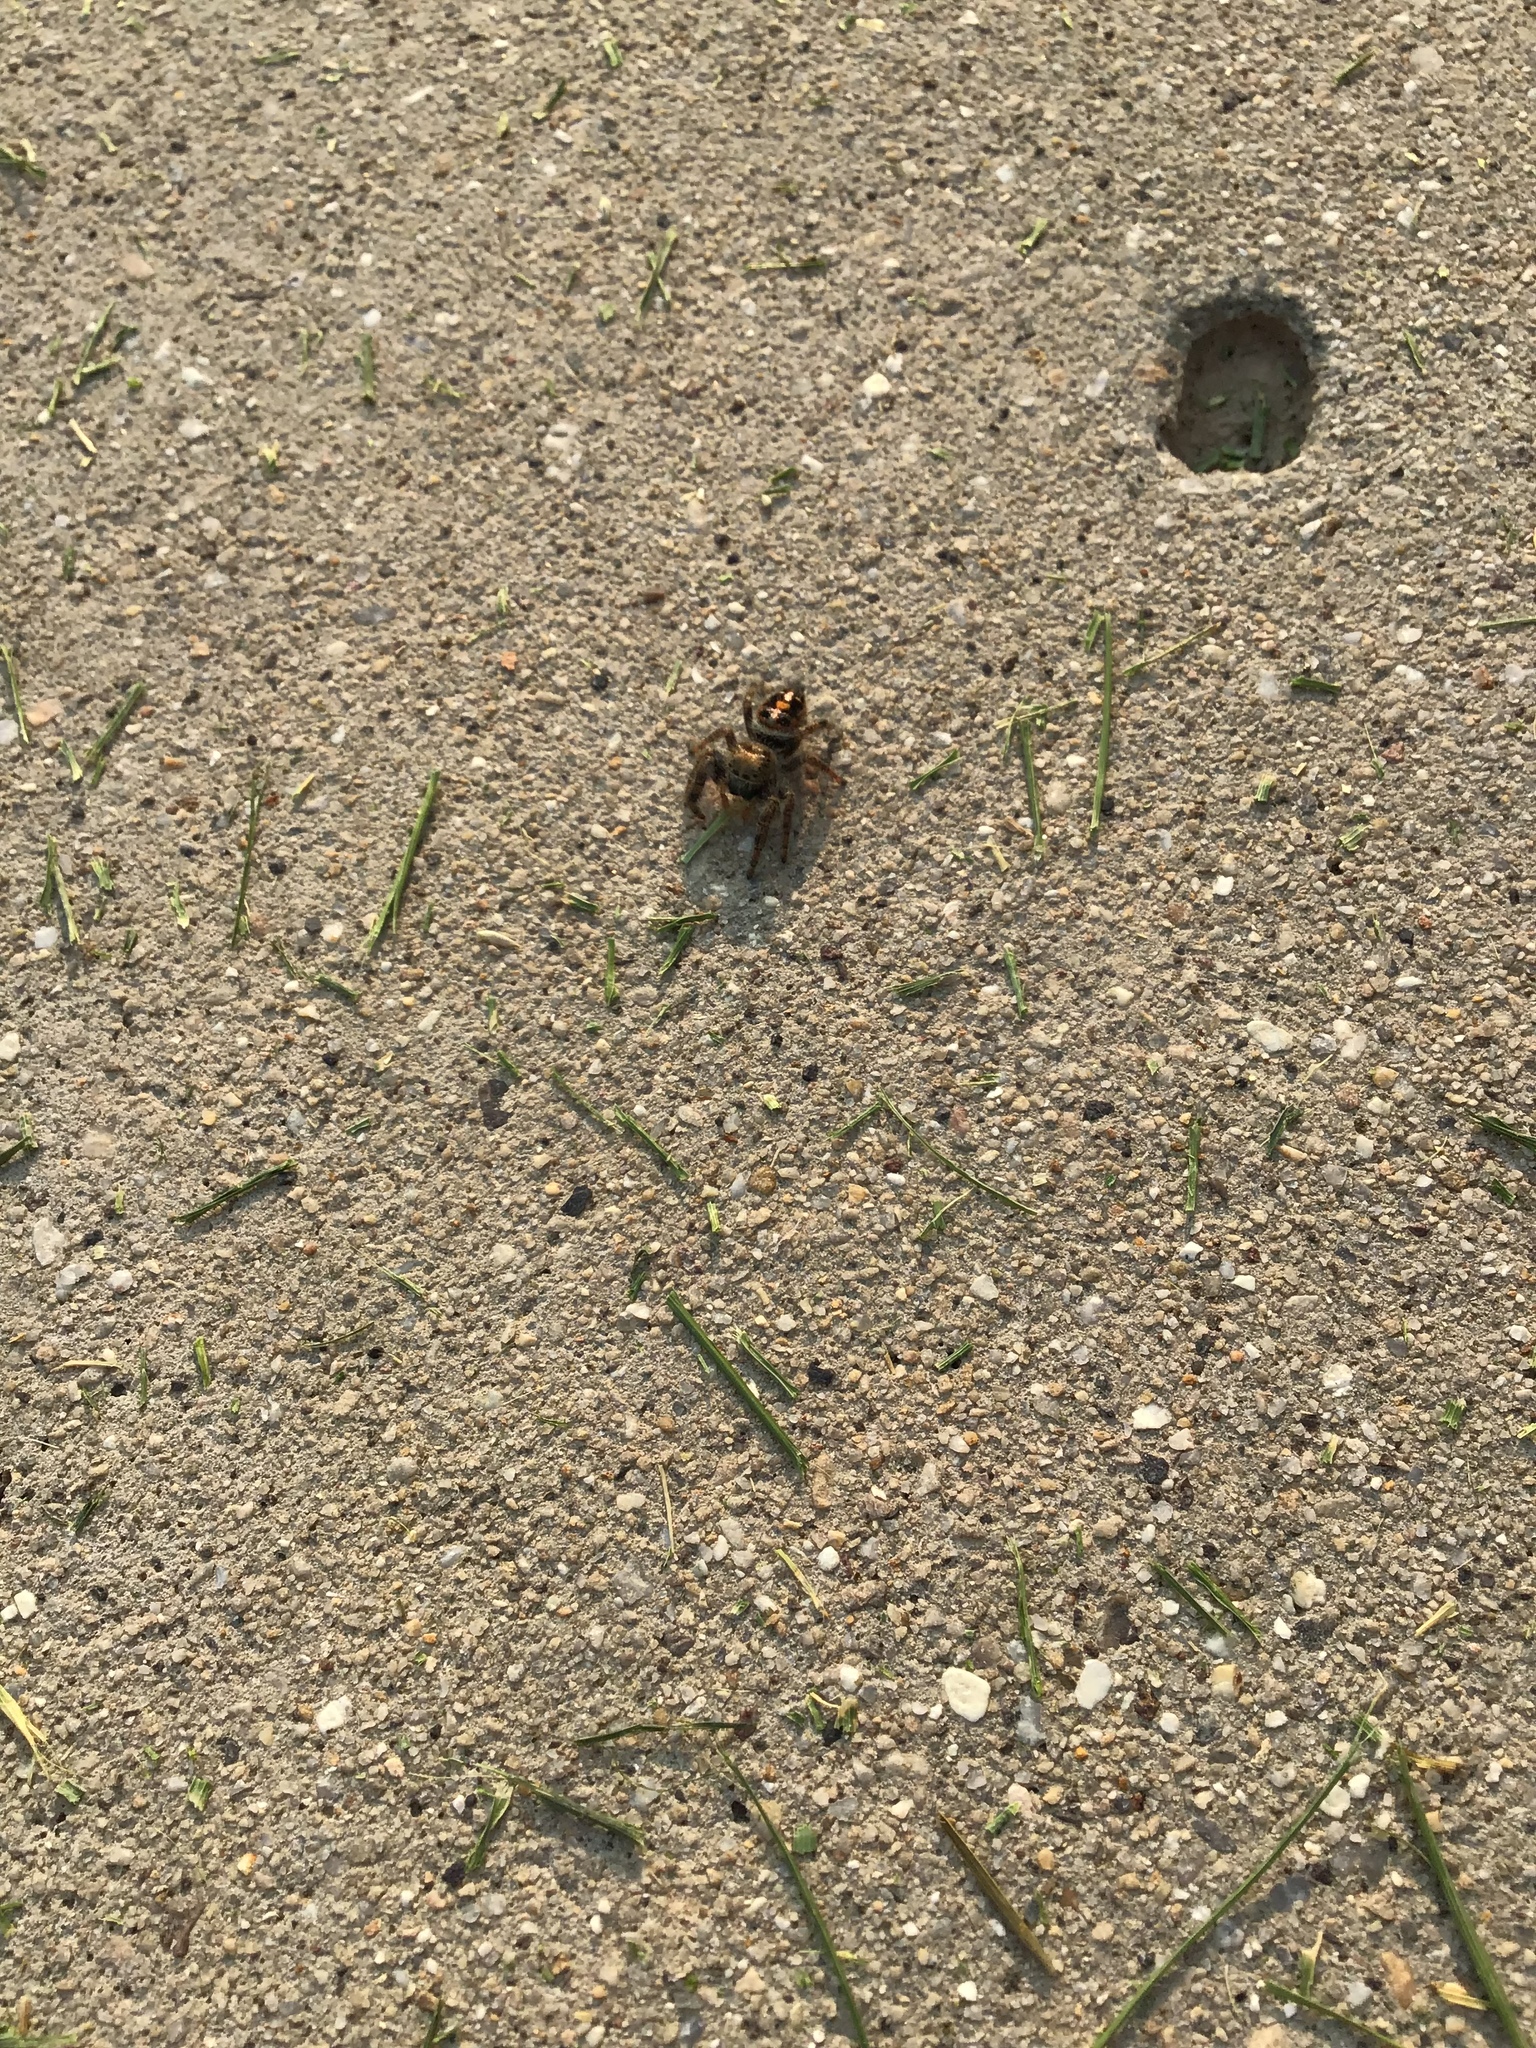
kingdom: Animalia
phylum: Arthropoda
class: Arachnida
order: Araneae
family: Salticidae
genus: Phidippus
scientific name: Phidippus audax
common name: Bold jumper
